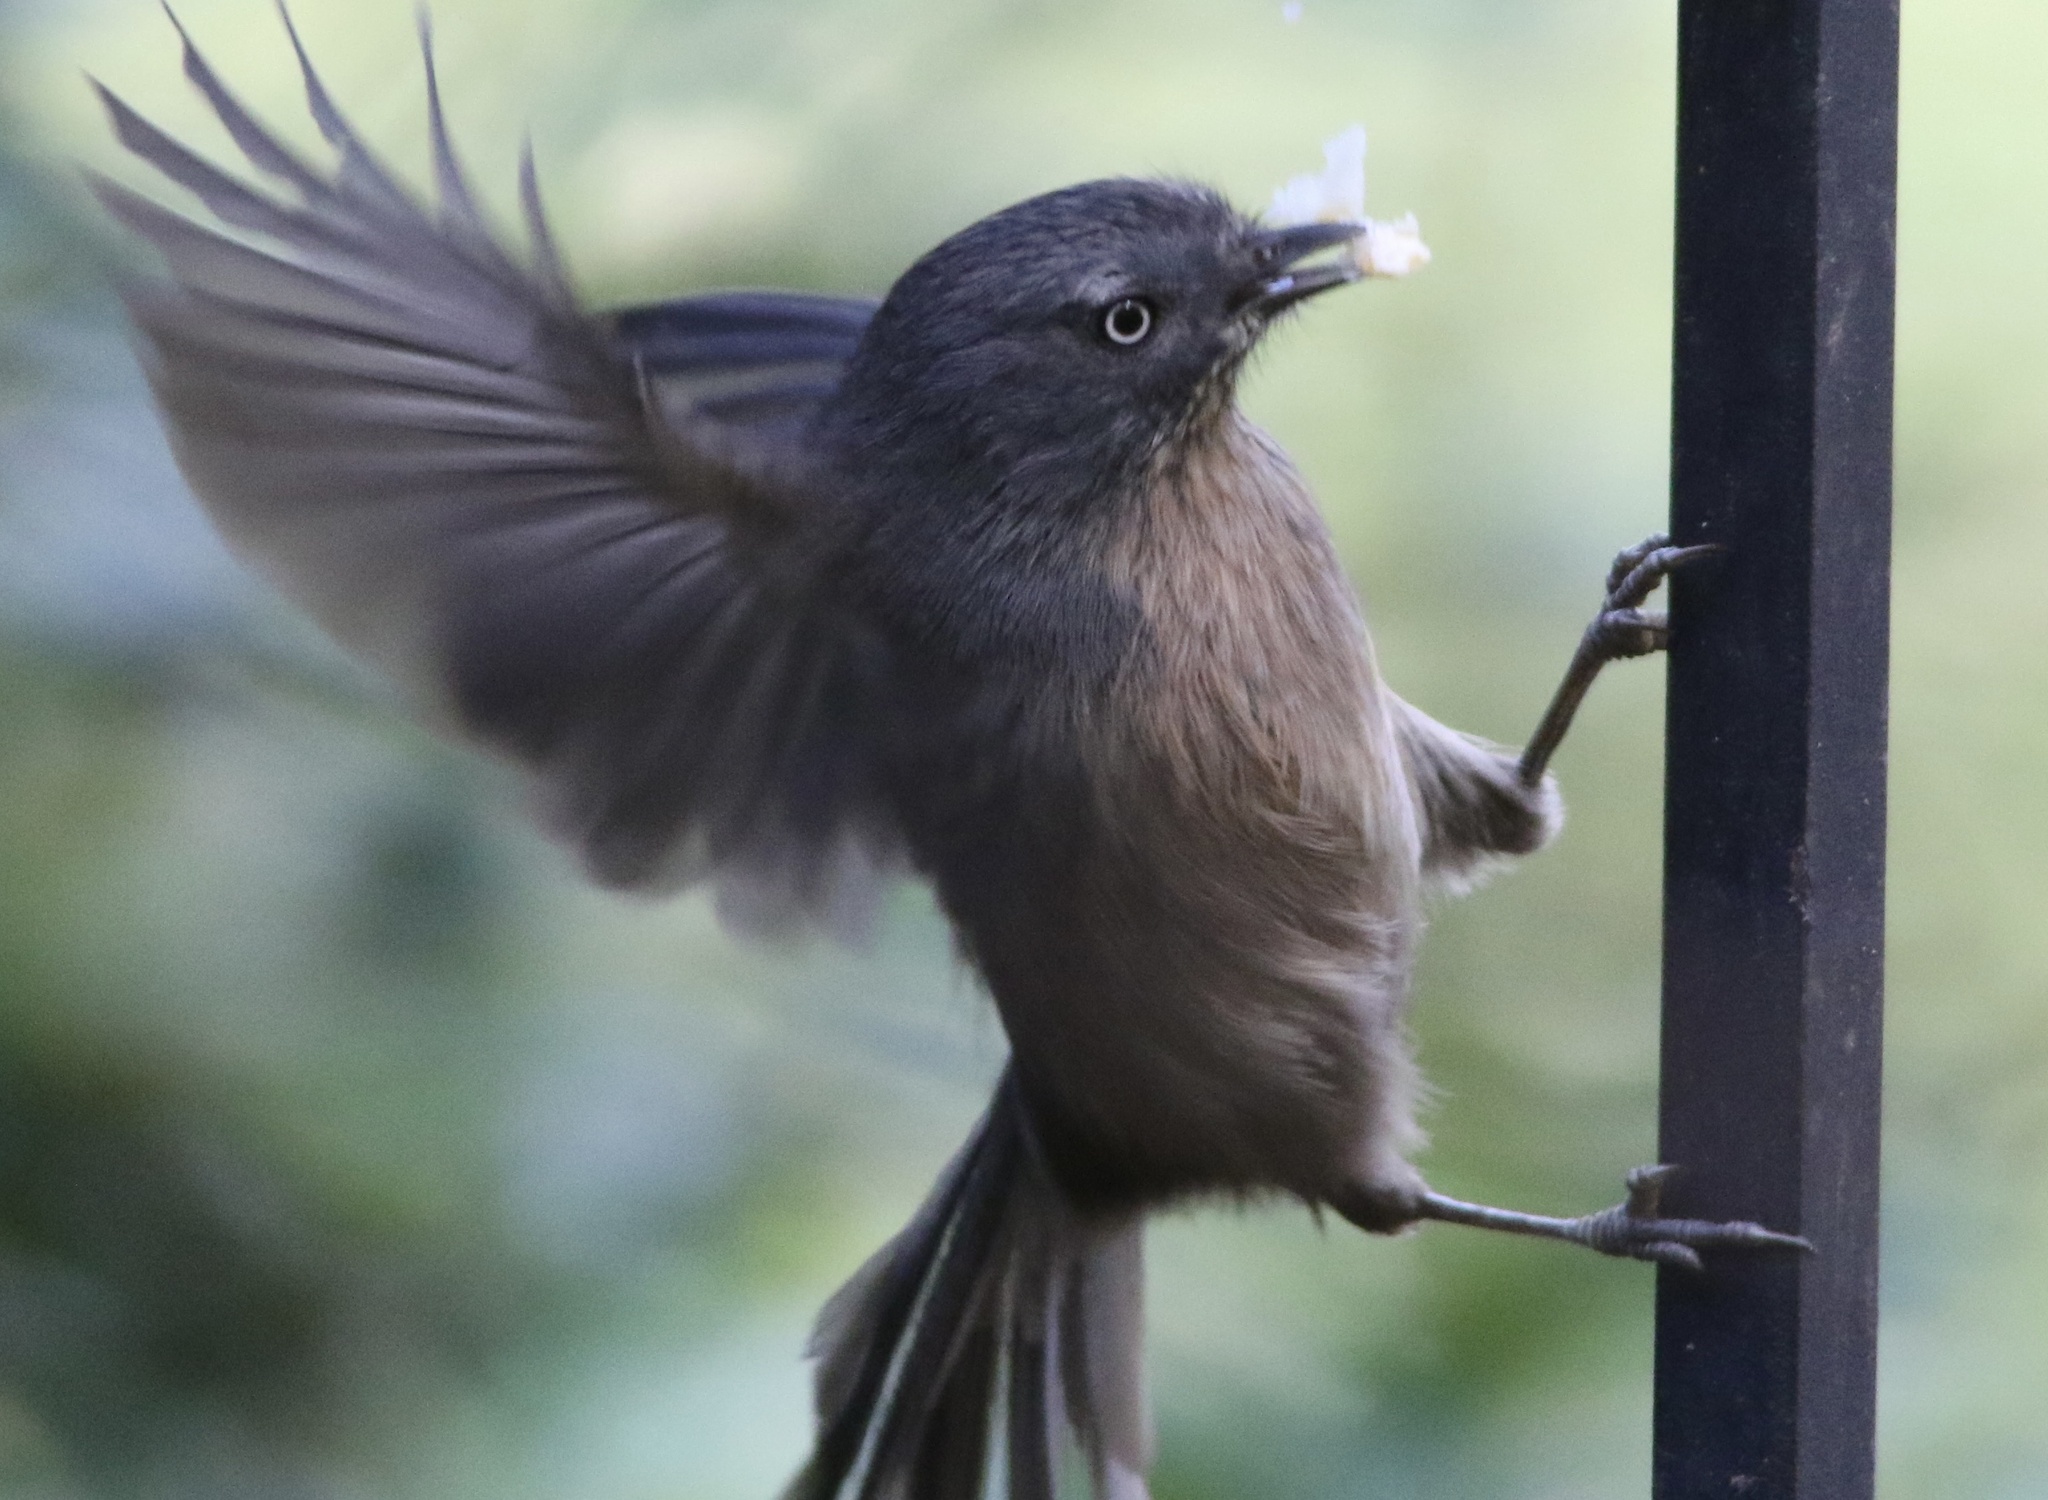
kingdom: Animalia
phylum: Chordata
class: Aves
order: Passeriformes
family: Sylviidae
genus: Chamaea
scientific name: Chamaea fasciata
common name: Wrentit
